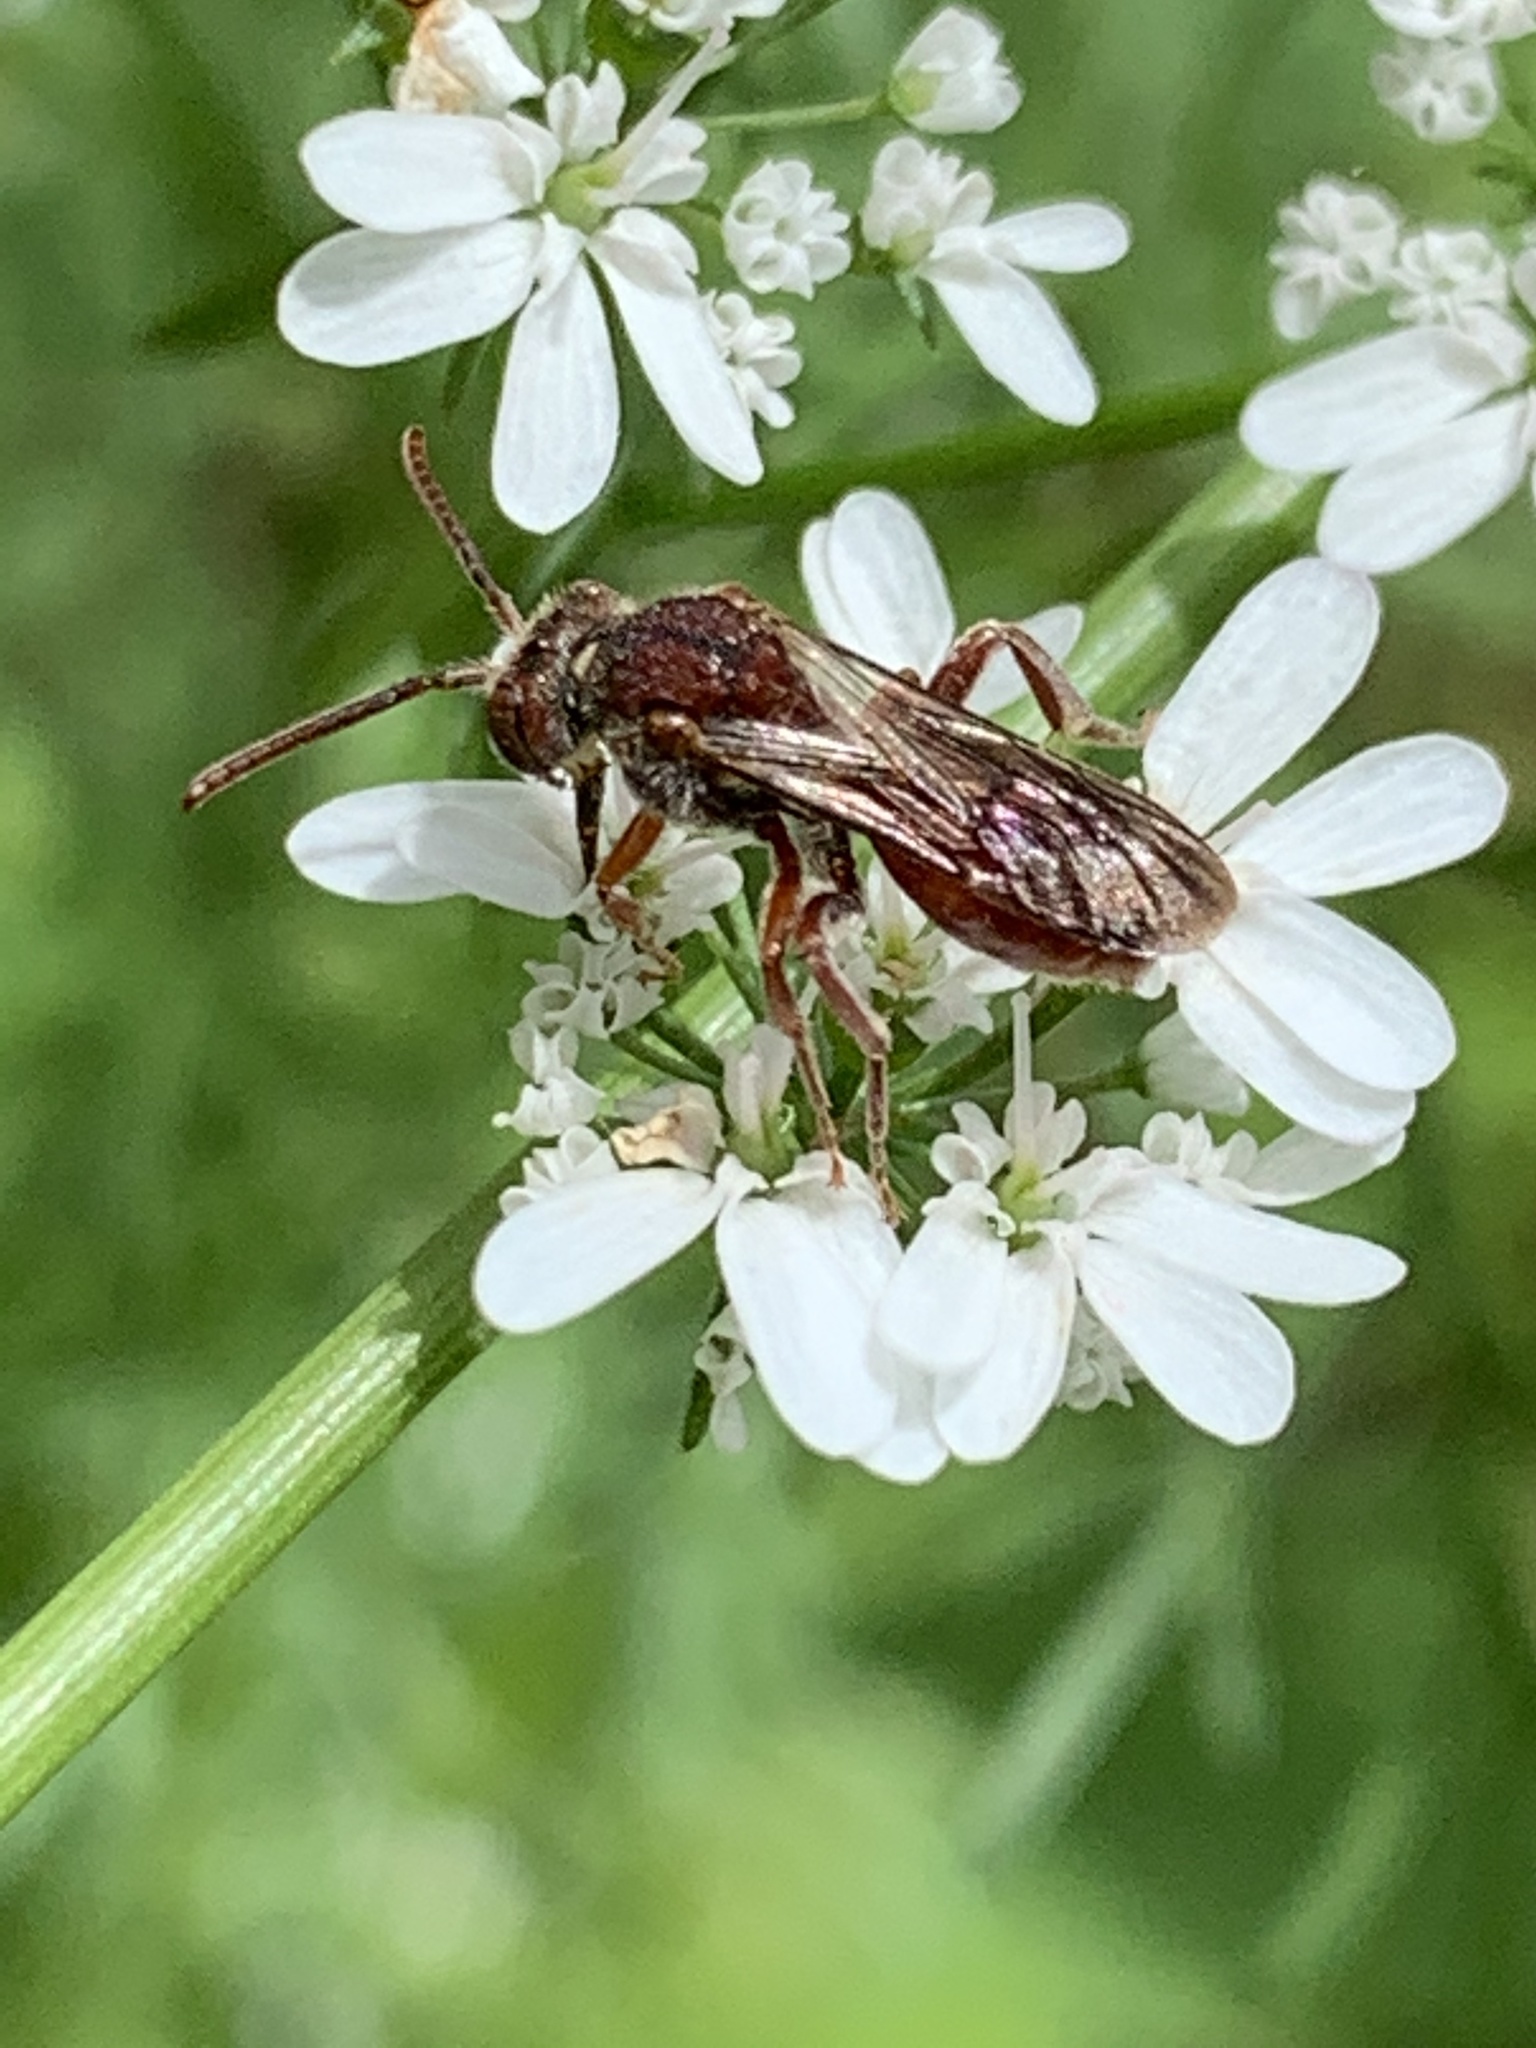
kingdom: Animalia
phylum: Arthropoda
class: Insecta
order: Hymenoptera
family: Apidae
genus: Nomada
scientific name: Nomada
